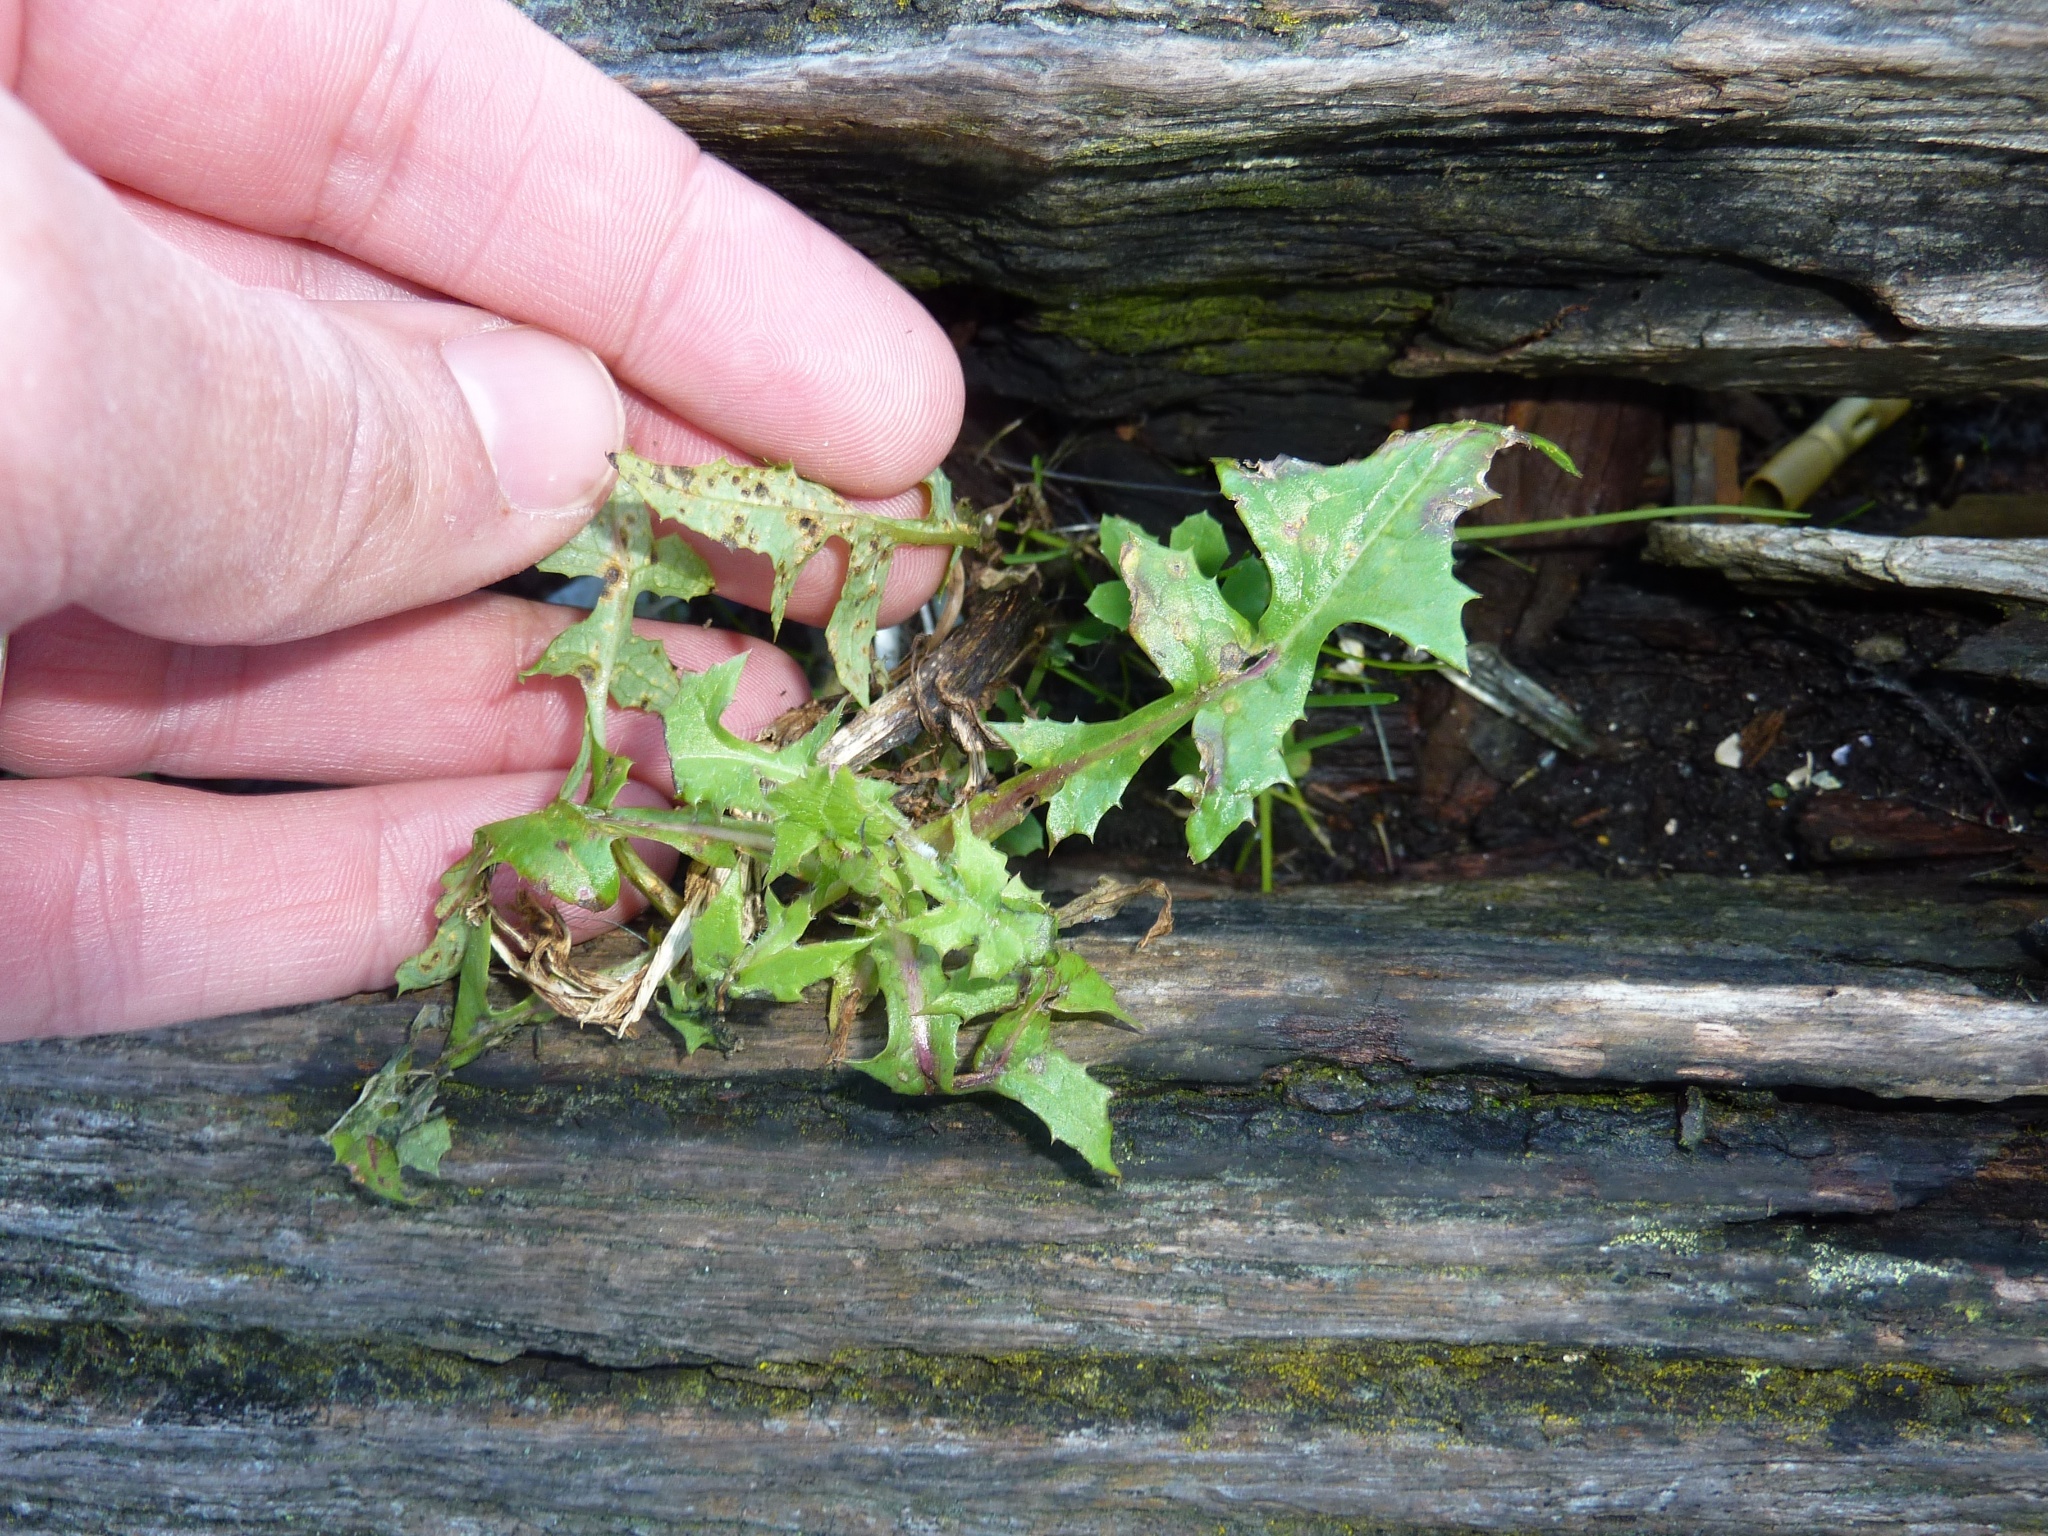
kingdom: Plantae
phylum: Tracheophyta
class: Magnoliopsida
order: Asterales
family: Asteraceae
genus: Sonchus
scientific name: Sonchus oleraceus
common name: Common sowthistle
